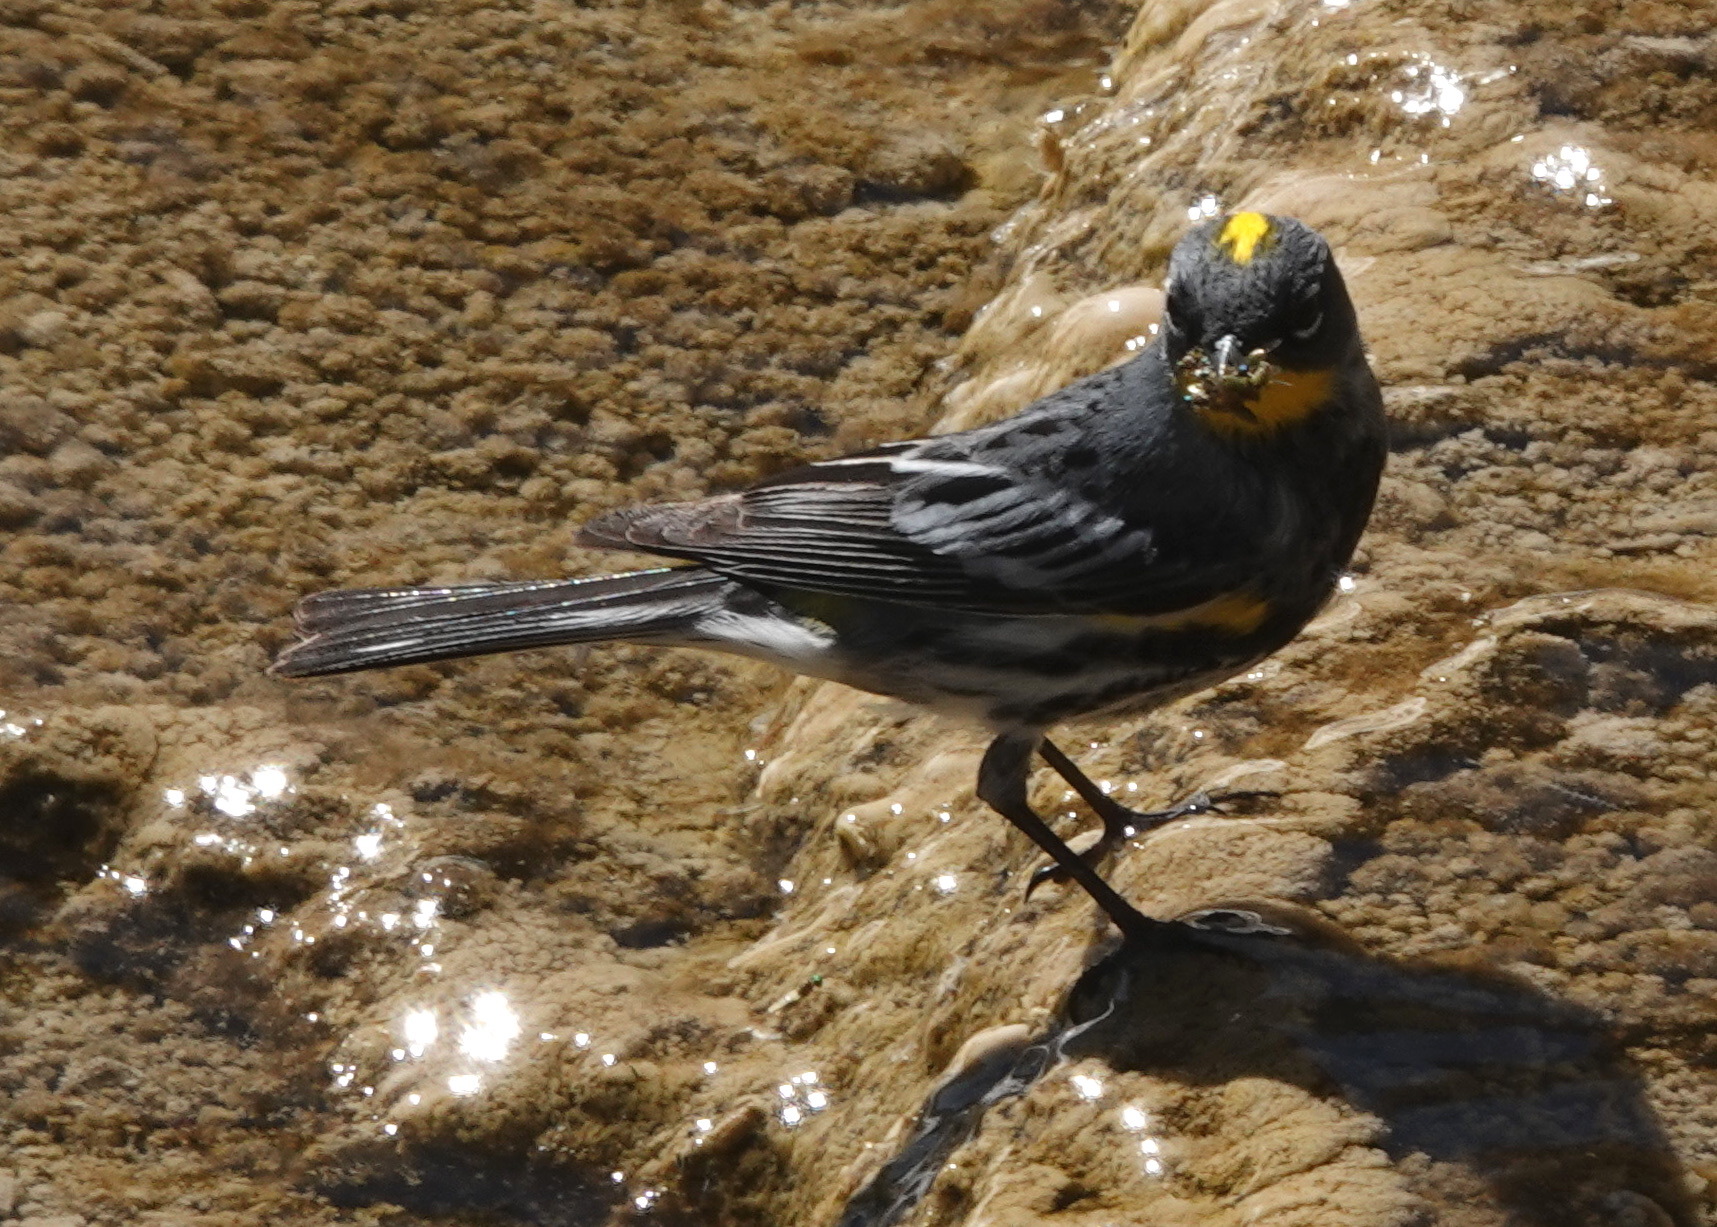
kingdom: Animalia
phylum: Chordata
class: Aves
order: Passeriformes
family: Parulidae
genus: Setophaga
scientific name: Setophaga auduboni
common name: Audubon's warbler
